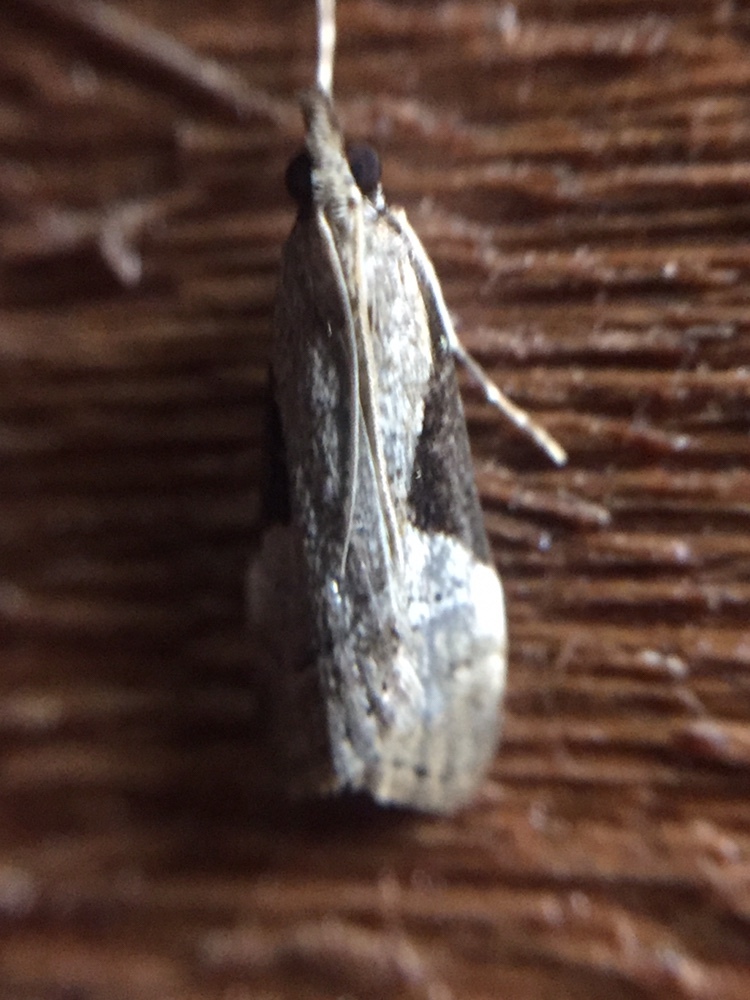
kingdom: Animalia
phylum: Arthropoda
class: Insecta
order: Lepidoptera
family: Crambidae
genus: Eudonia
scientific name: Eudonia pongalis
